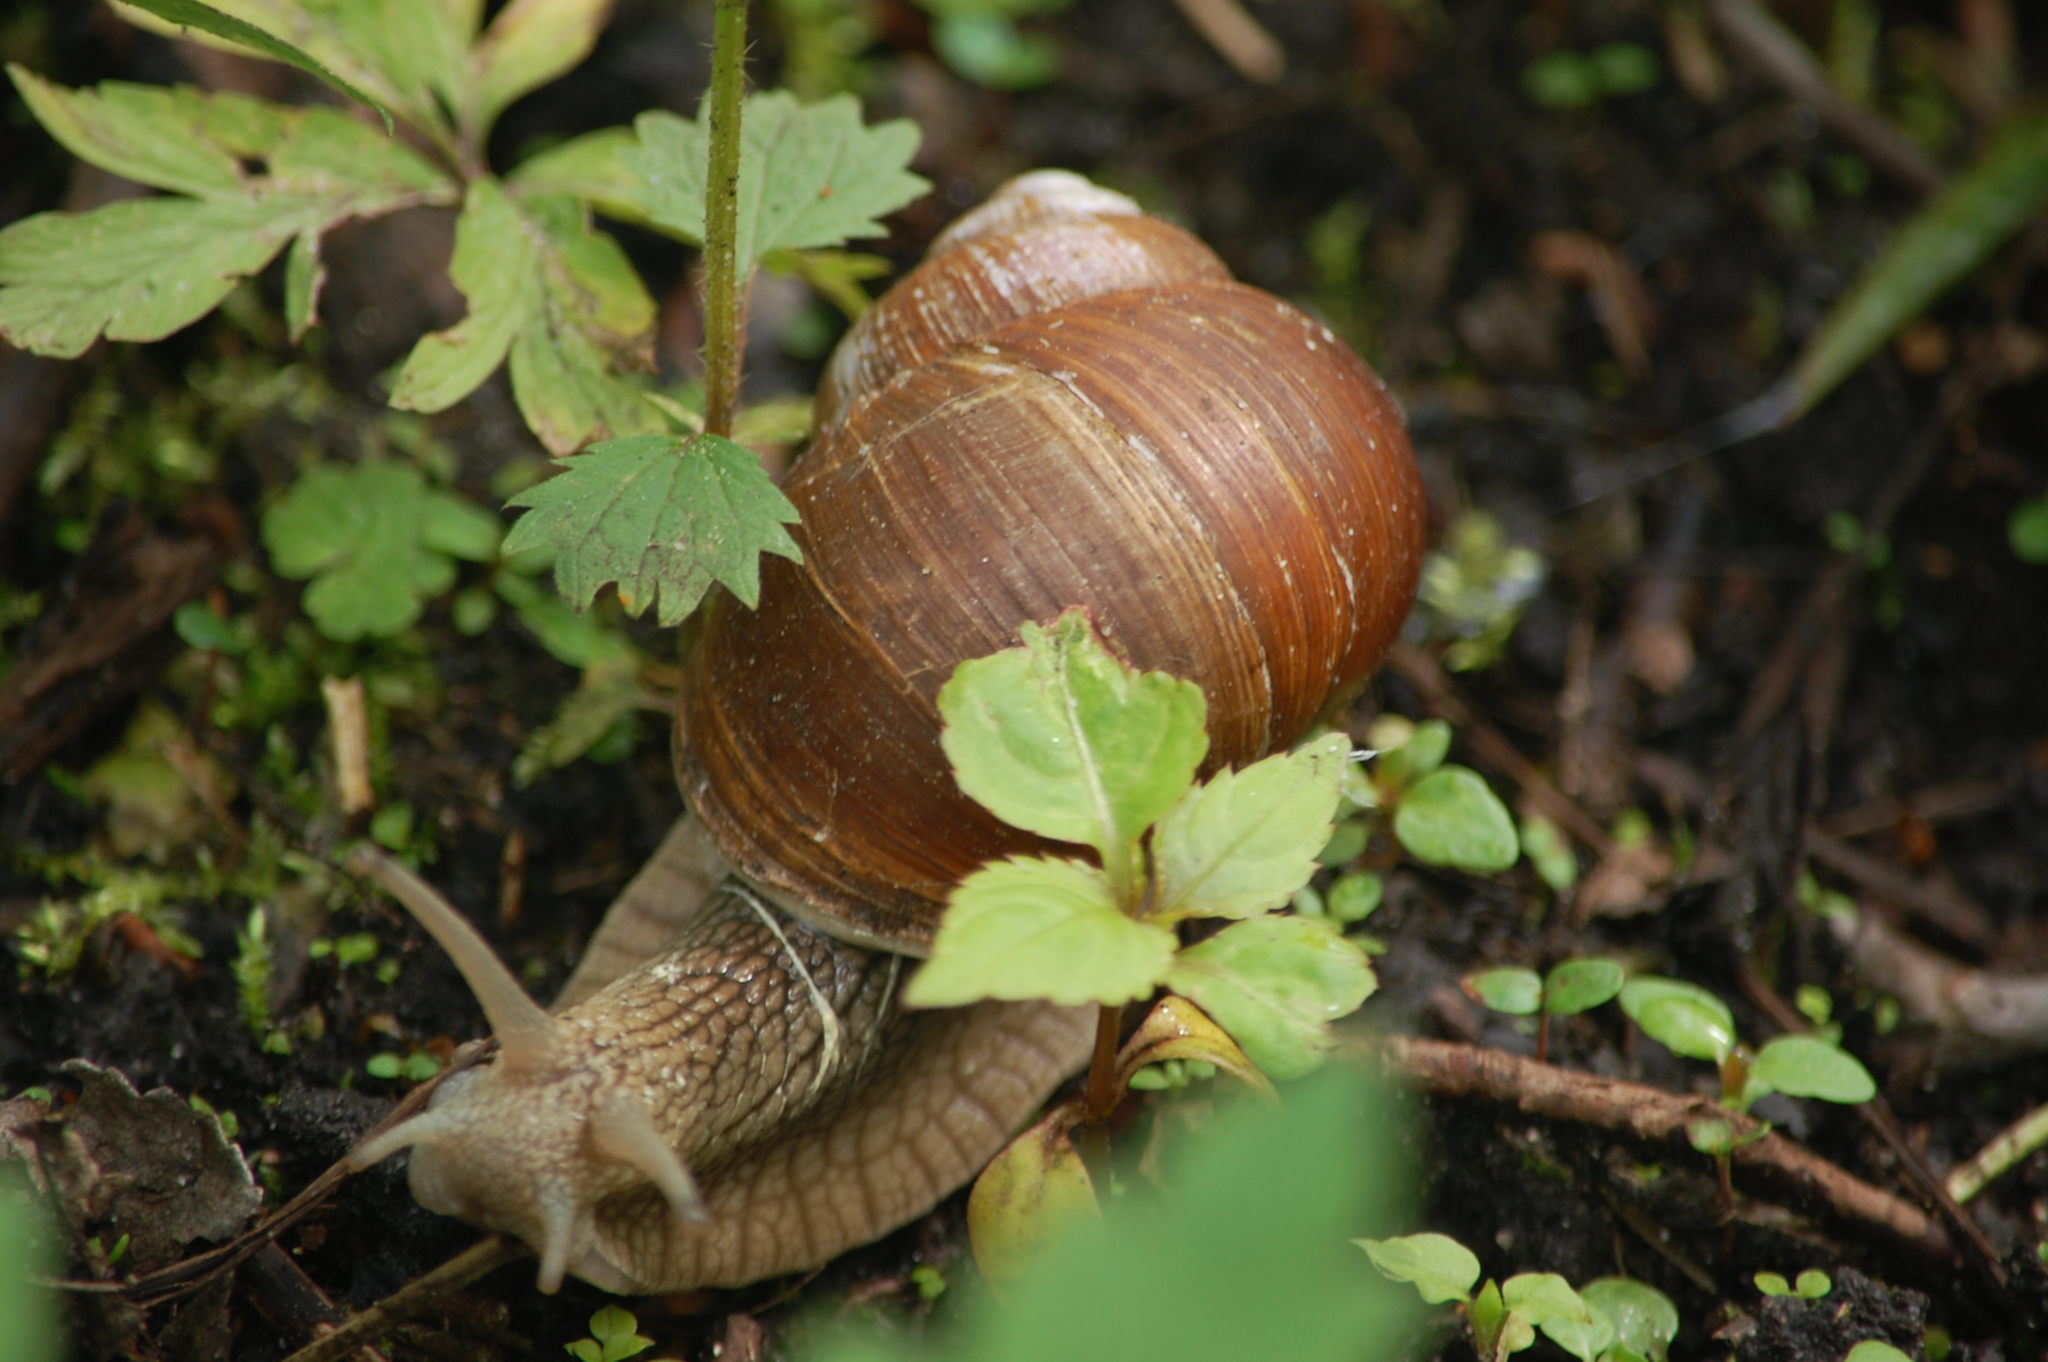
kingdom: Animalia
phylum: Mollusca
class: Gastropoda
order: Stylommatophora
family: Helicidae
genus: Helix
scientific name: Helix pomatia
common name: Roman snail
